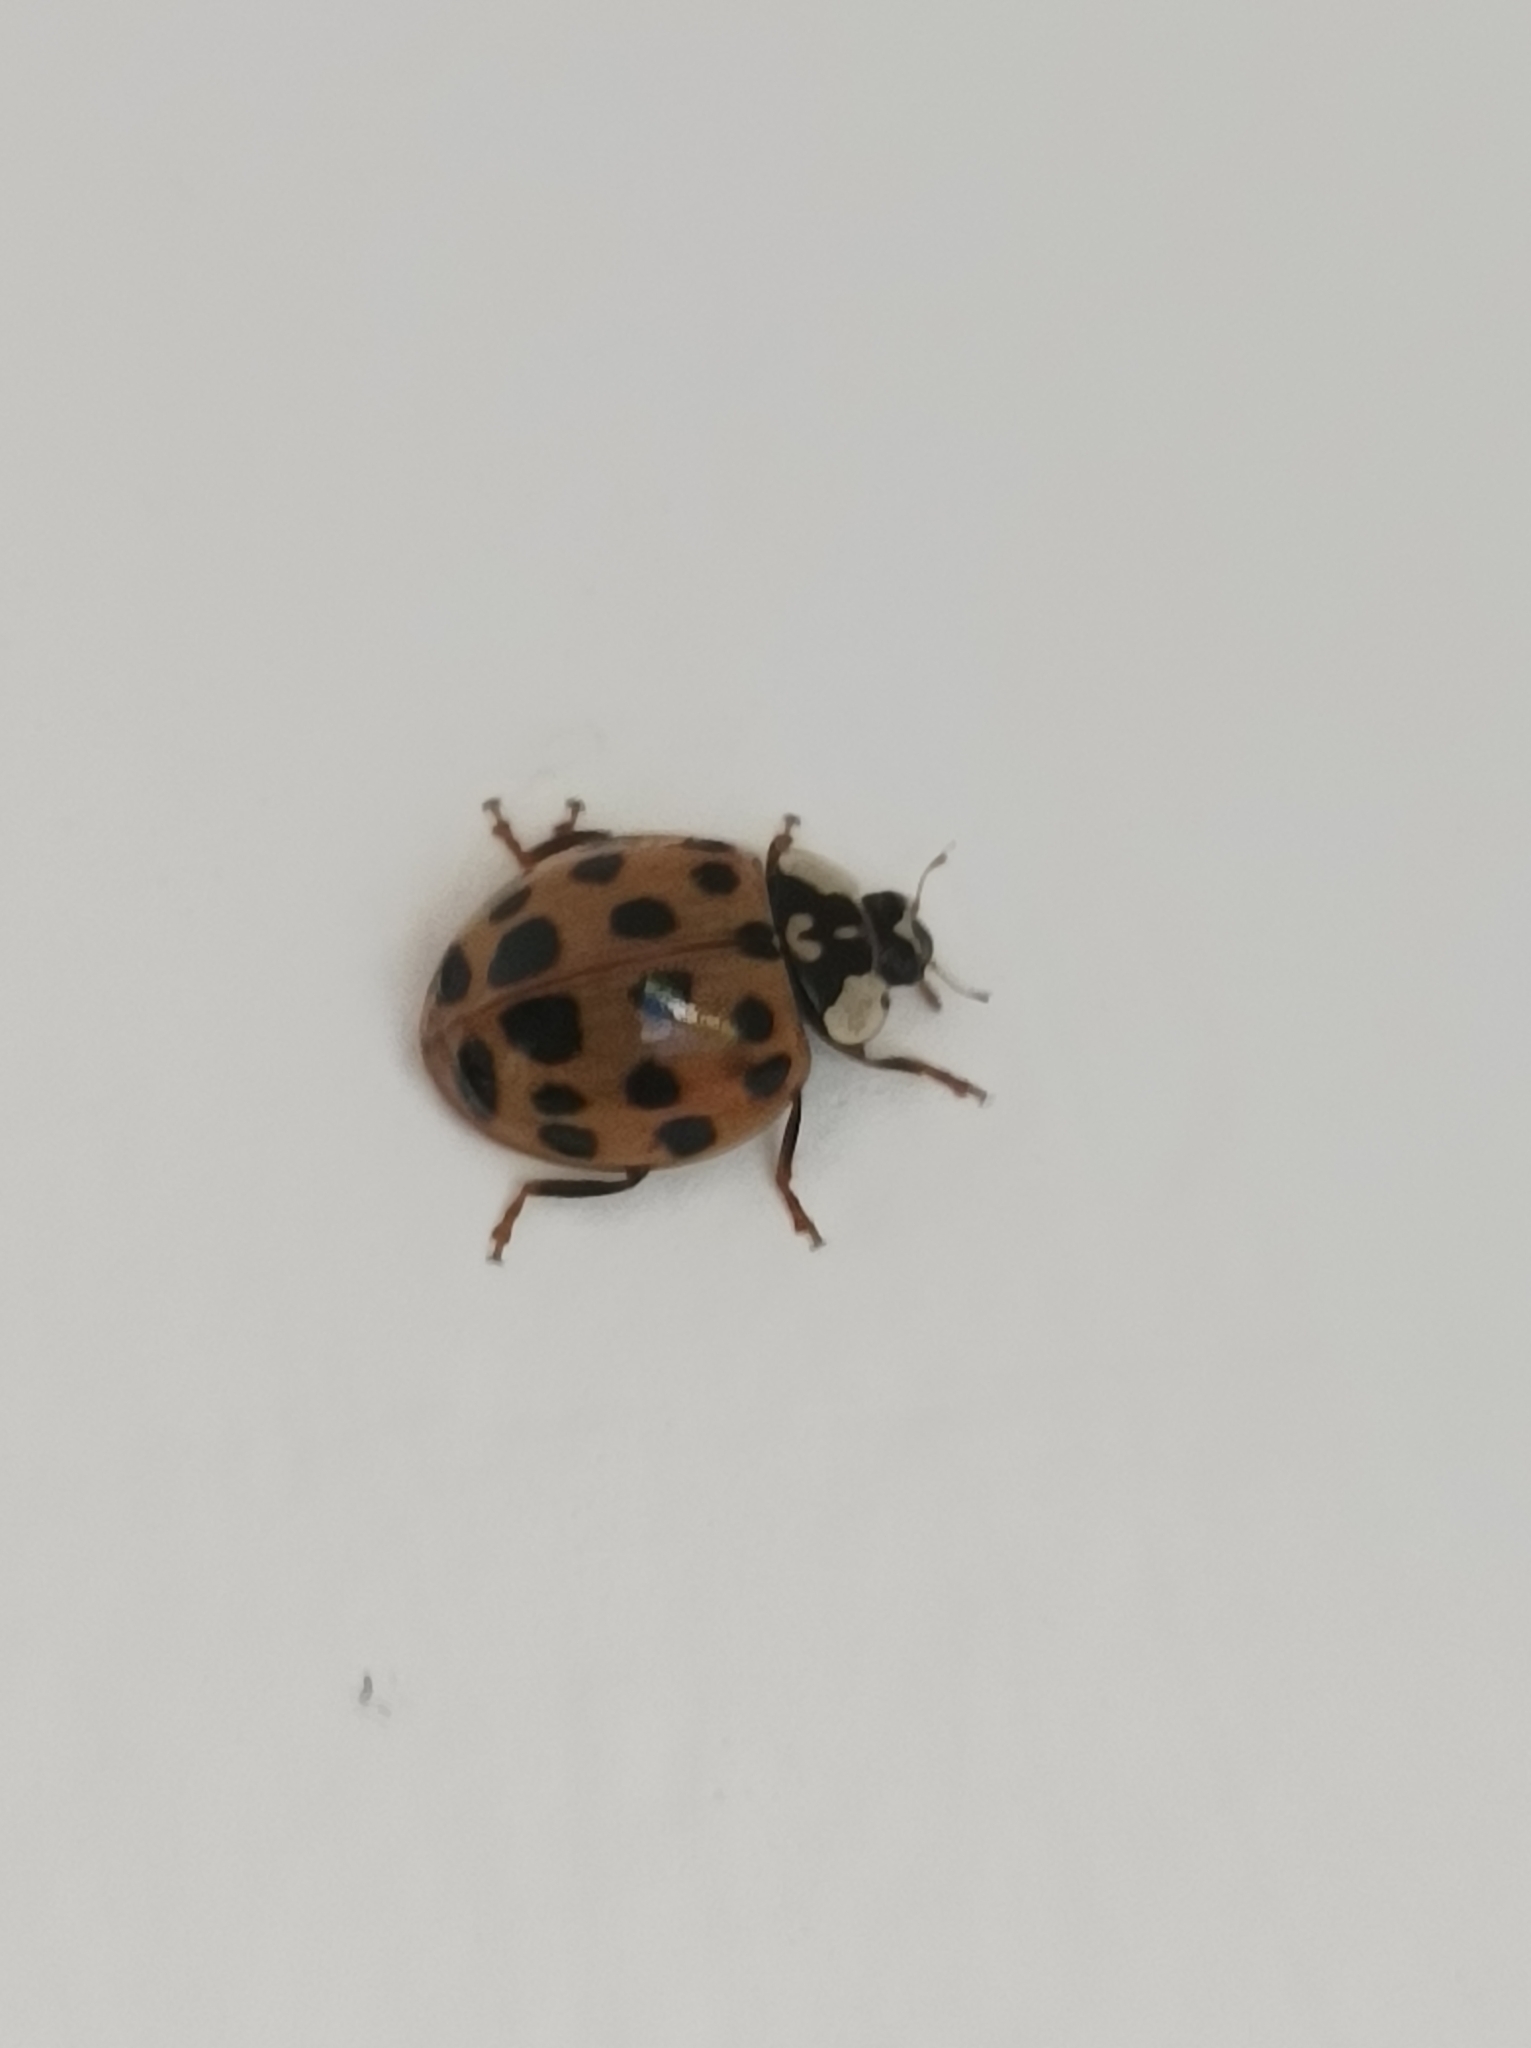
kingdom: Animalia
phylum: Arthropoda
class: Insecta
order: Coleoptera
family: Coccinellidae
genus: Harmonia
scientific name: Harmonia axyridis
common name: Harlequin ladybird
